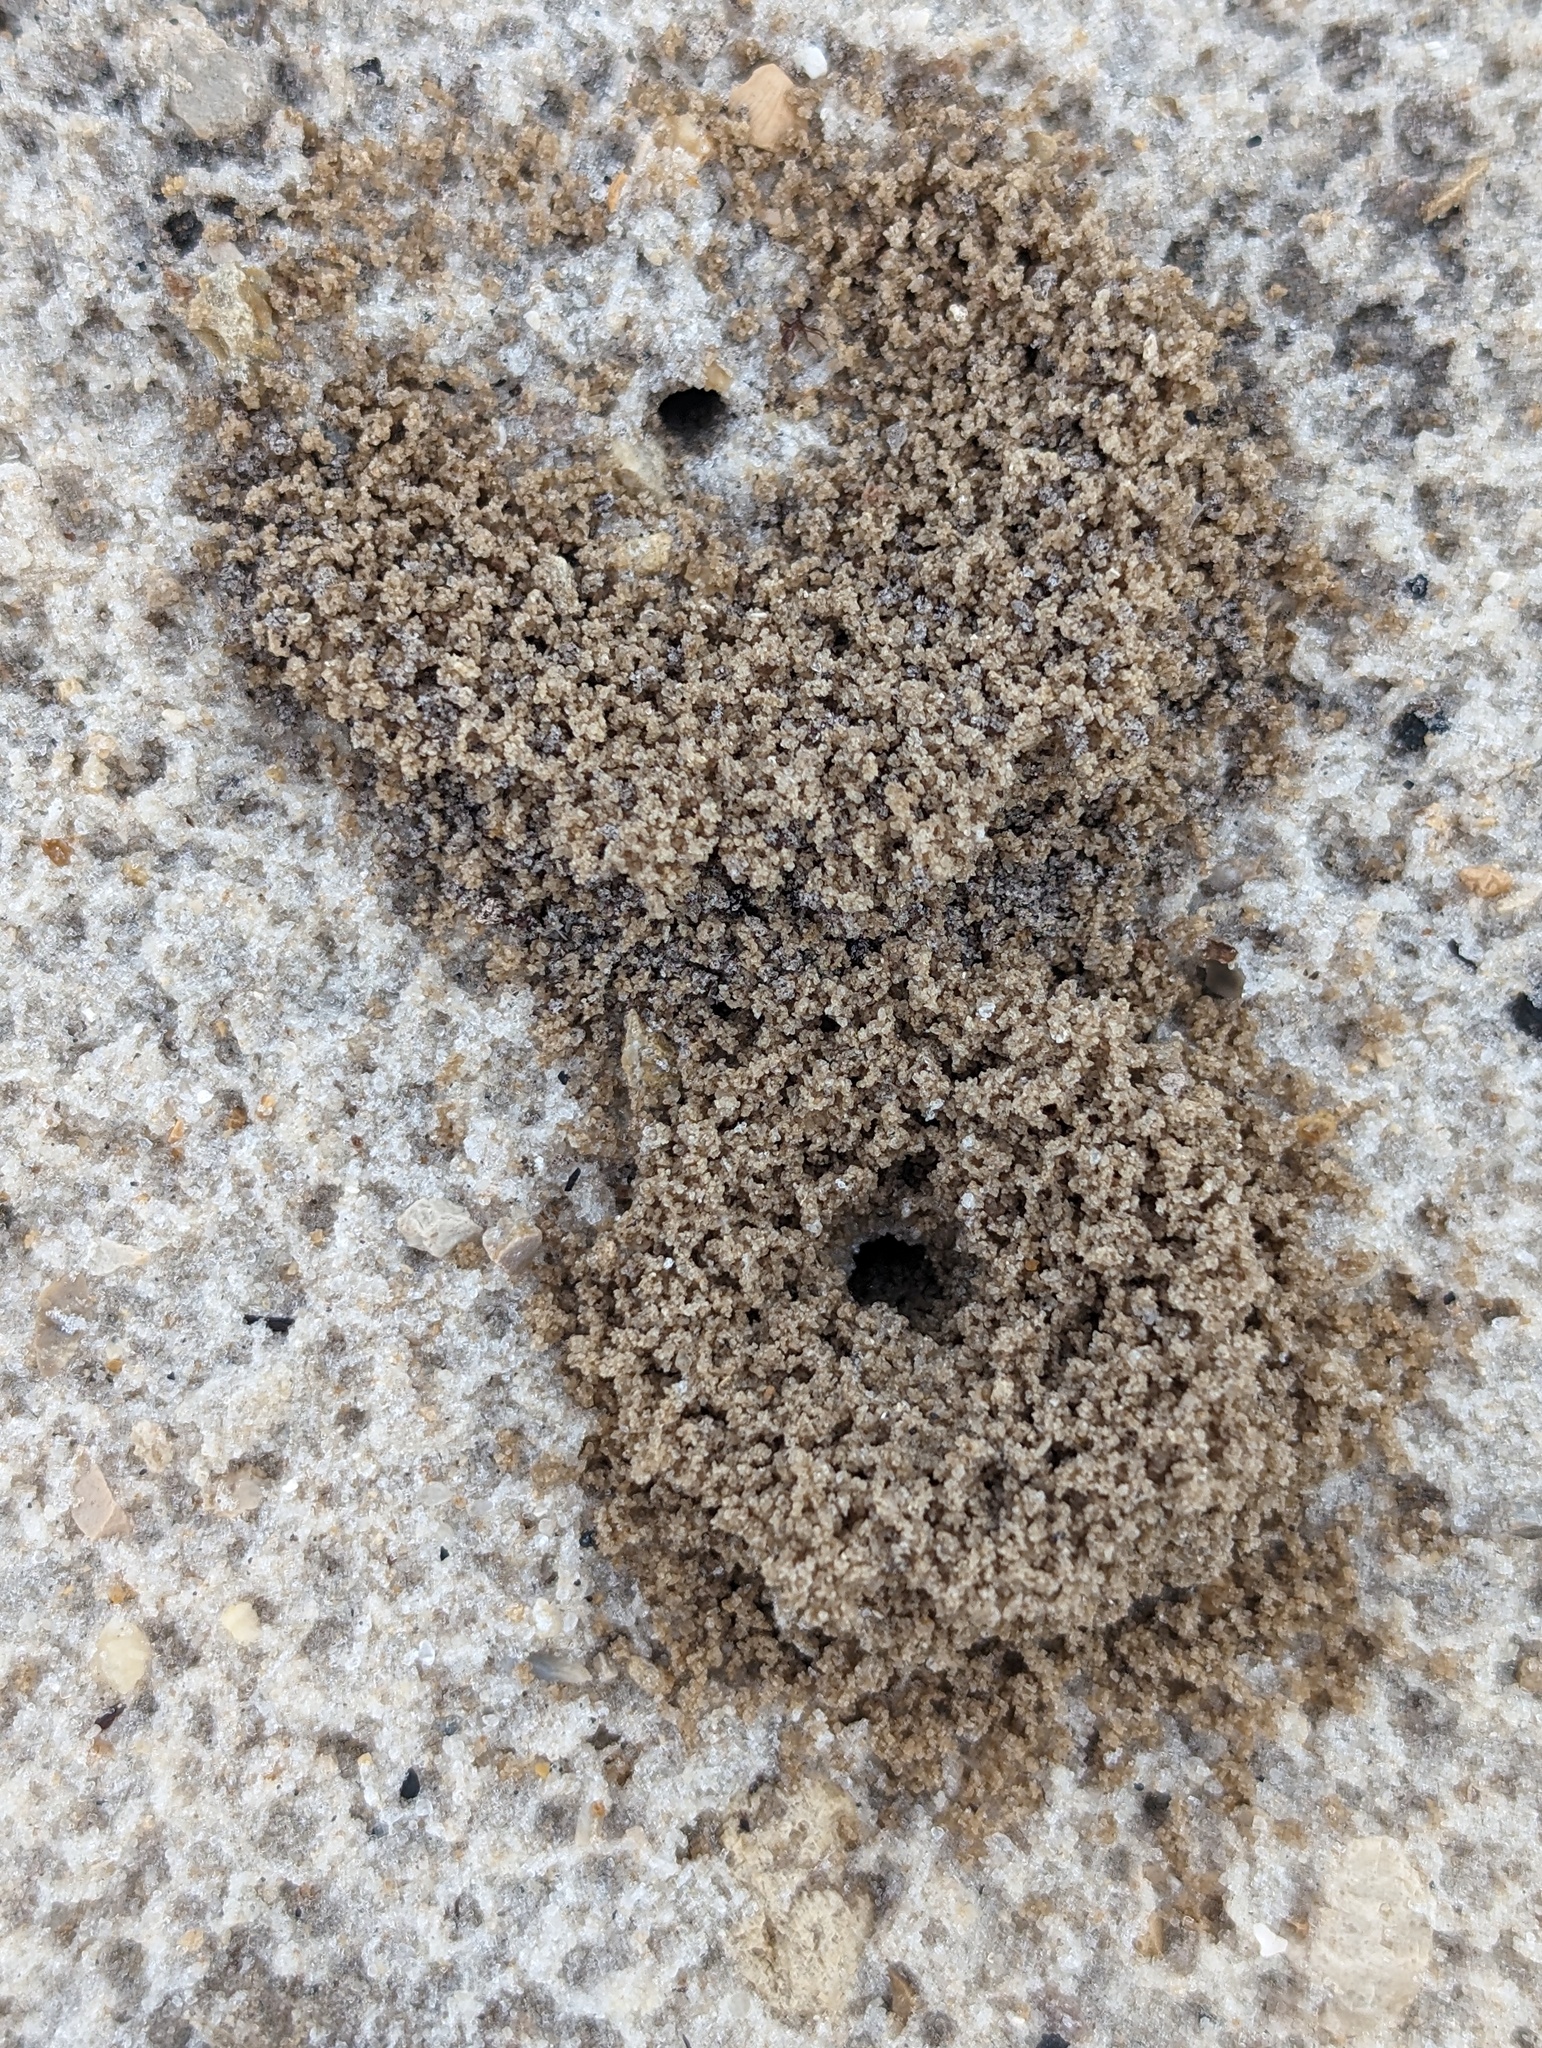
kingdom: Animalia
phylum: Arthropoda
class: Insecta
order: Hymenoptera
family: Formicidae
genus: Dorymyrmex
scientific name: Dorymyrmex bureni
